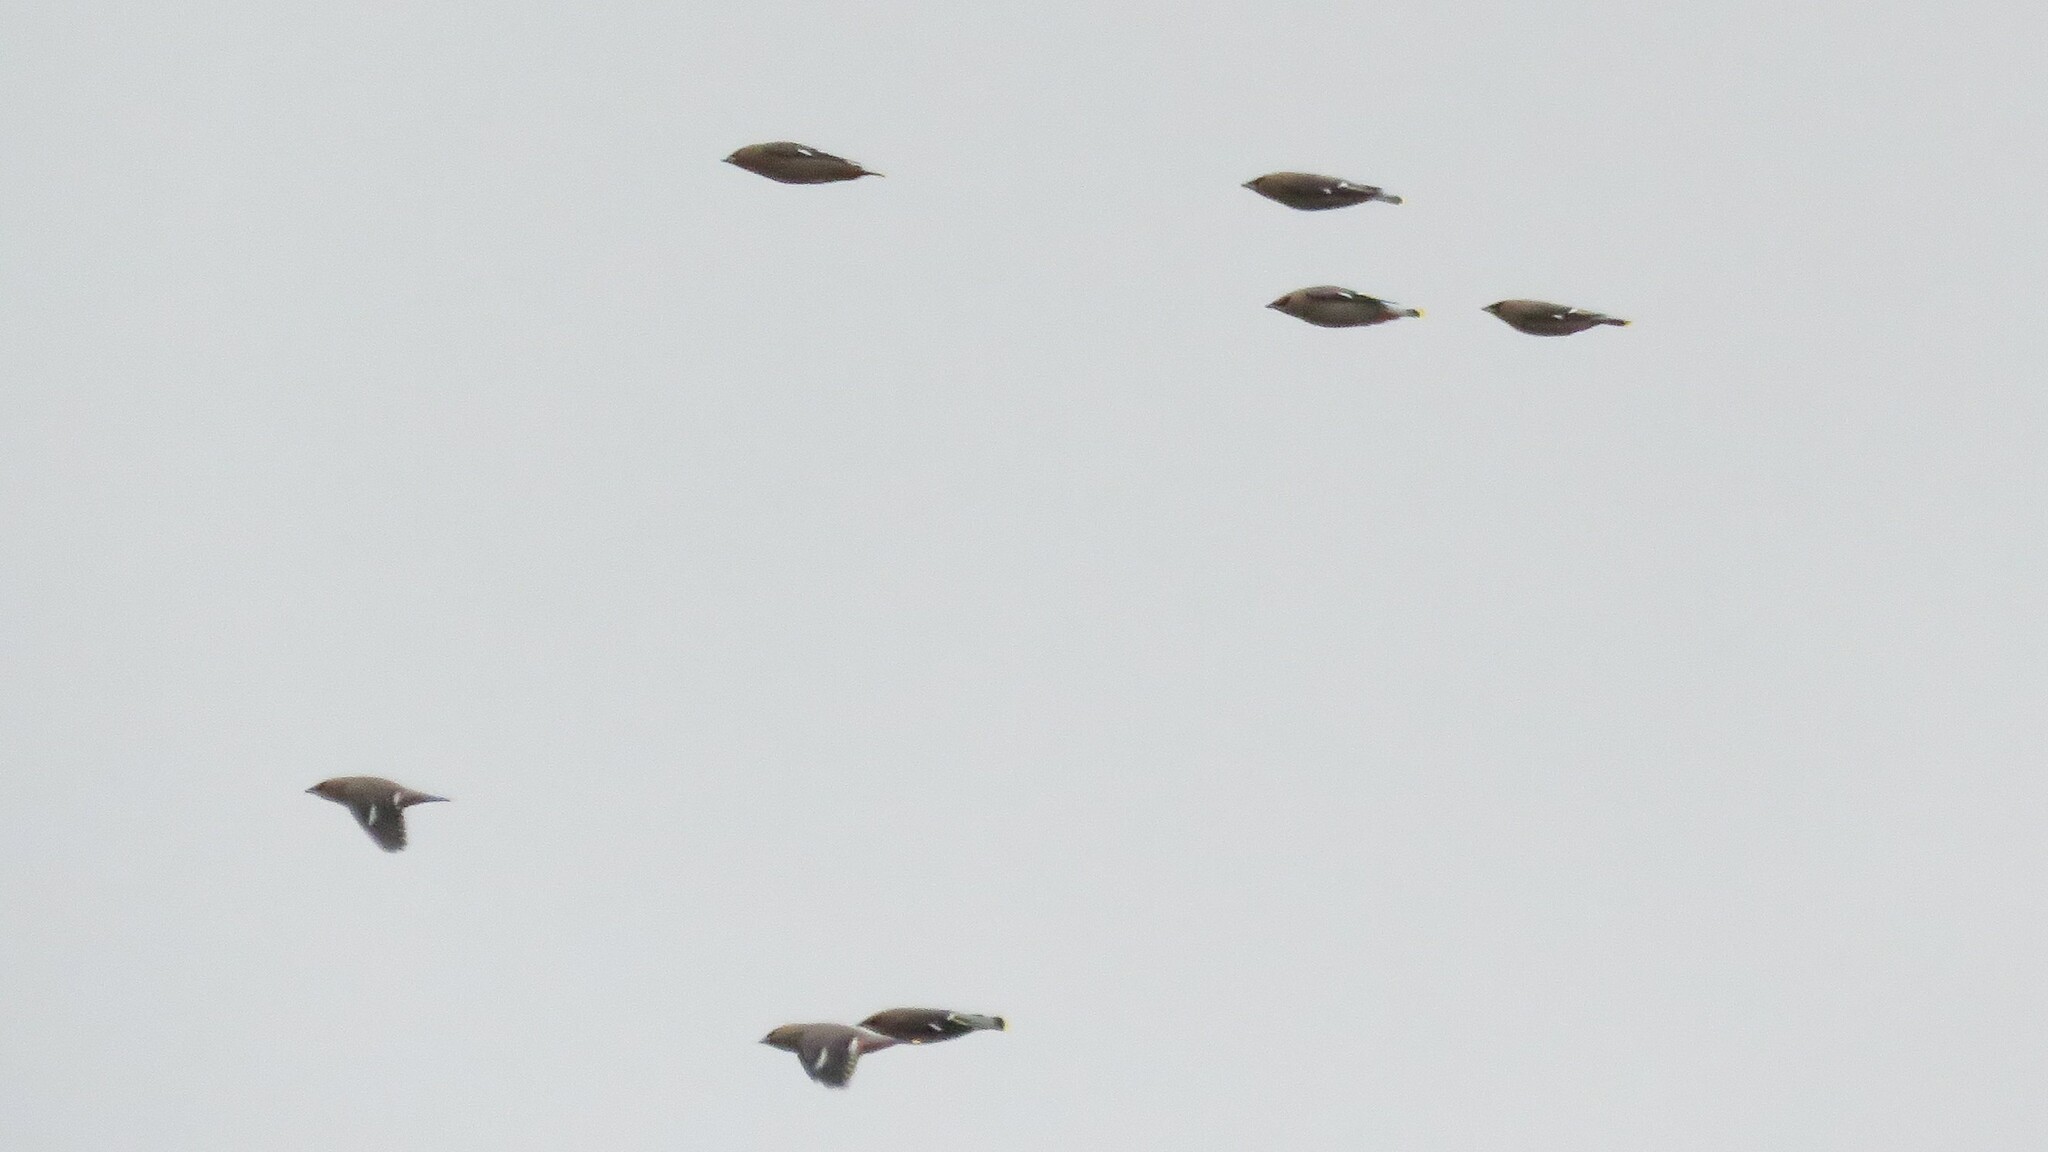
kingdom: Animalia
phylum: Chordata
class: Aves
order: Passeriformes
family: Bombycillidae
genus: Bombycilla
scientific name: Bombycilla garrulus
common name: Bohemian waxwing
